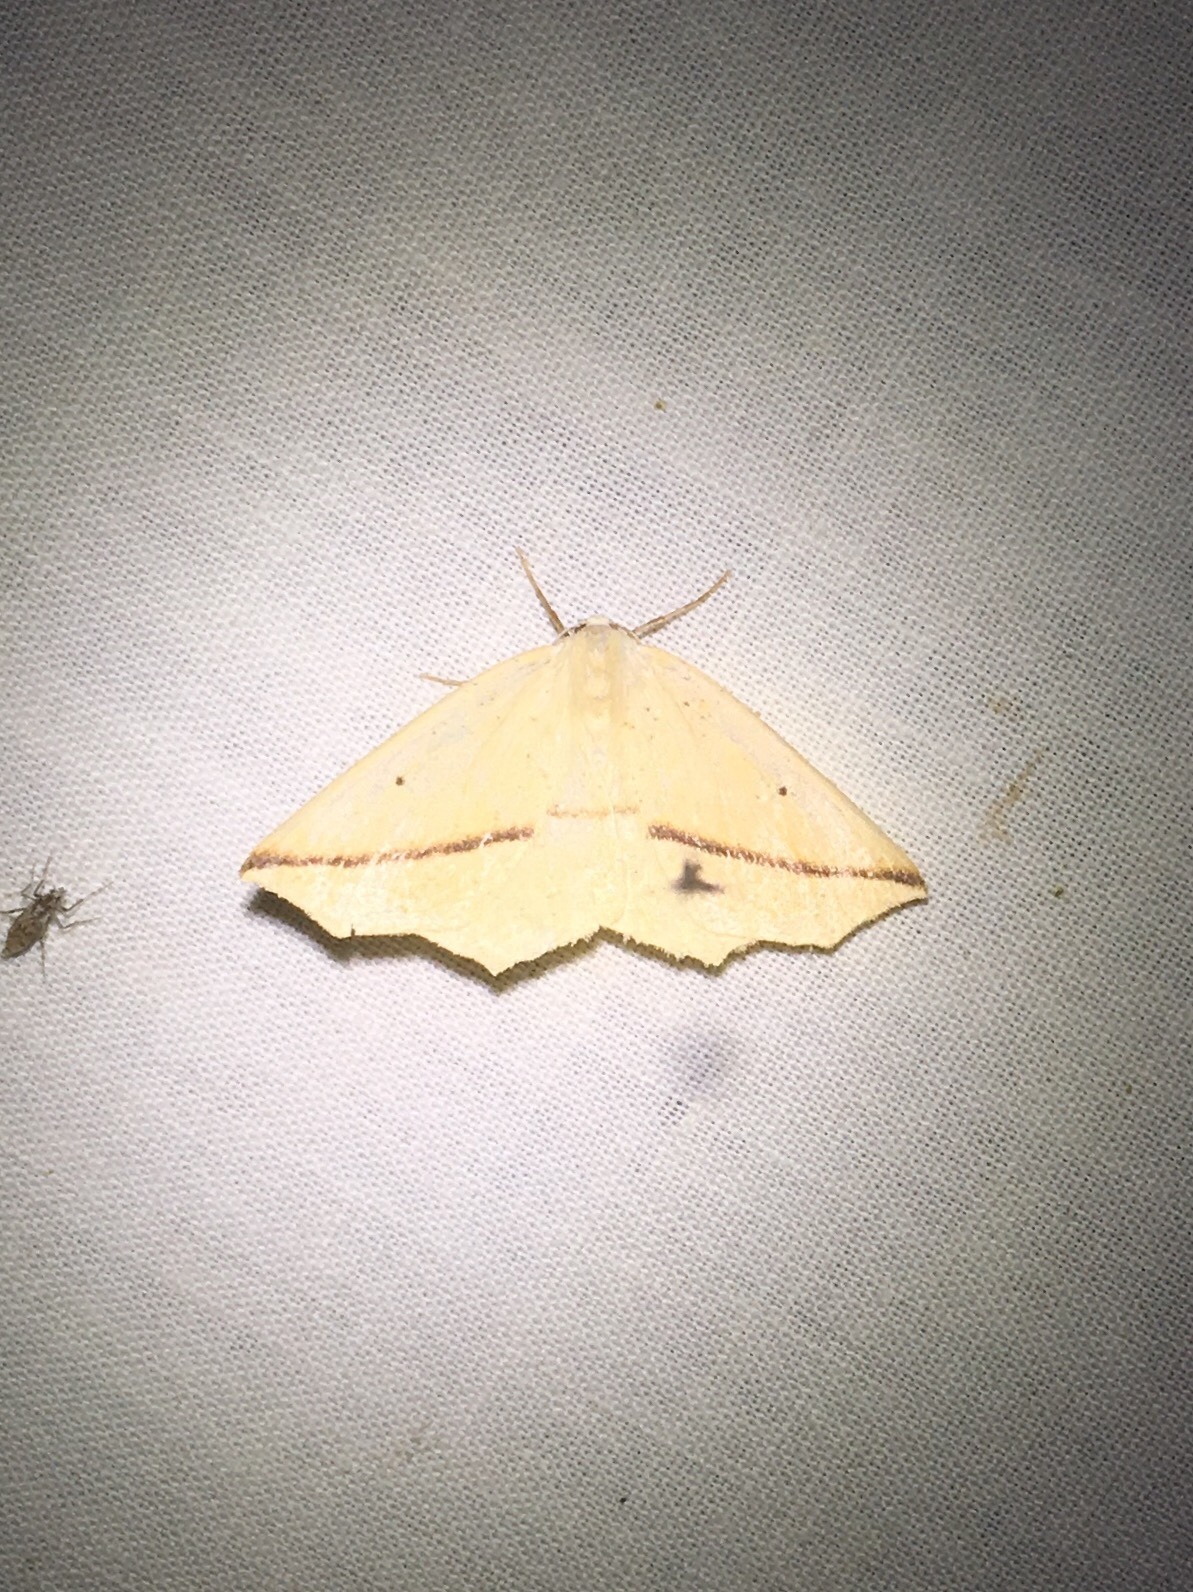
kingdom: Animalia
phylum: Arthropoda
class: Insecta
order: Lepidoptera
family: Geometridae
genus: Tetracis
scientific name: Tetracis crocallata
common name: Yellow slant-line
